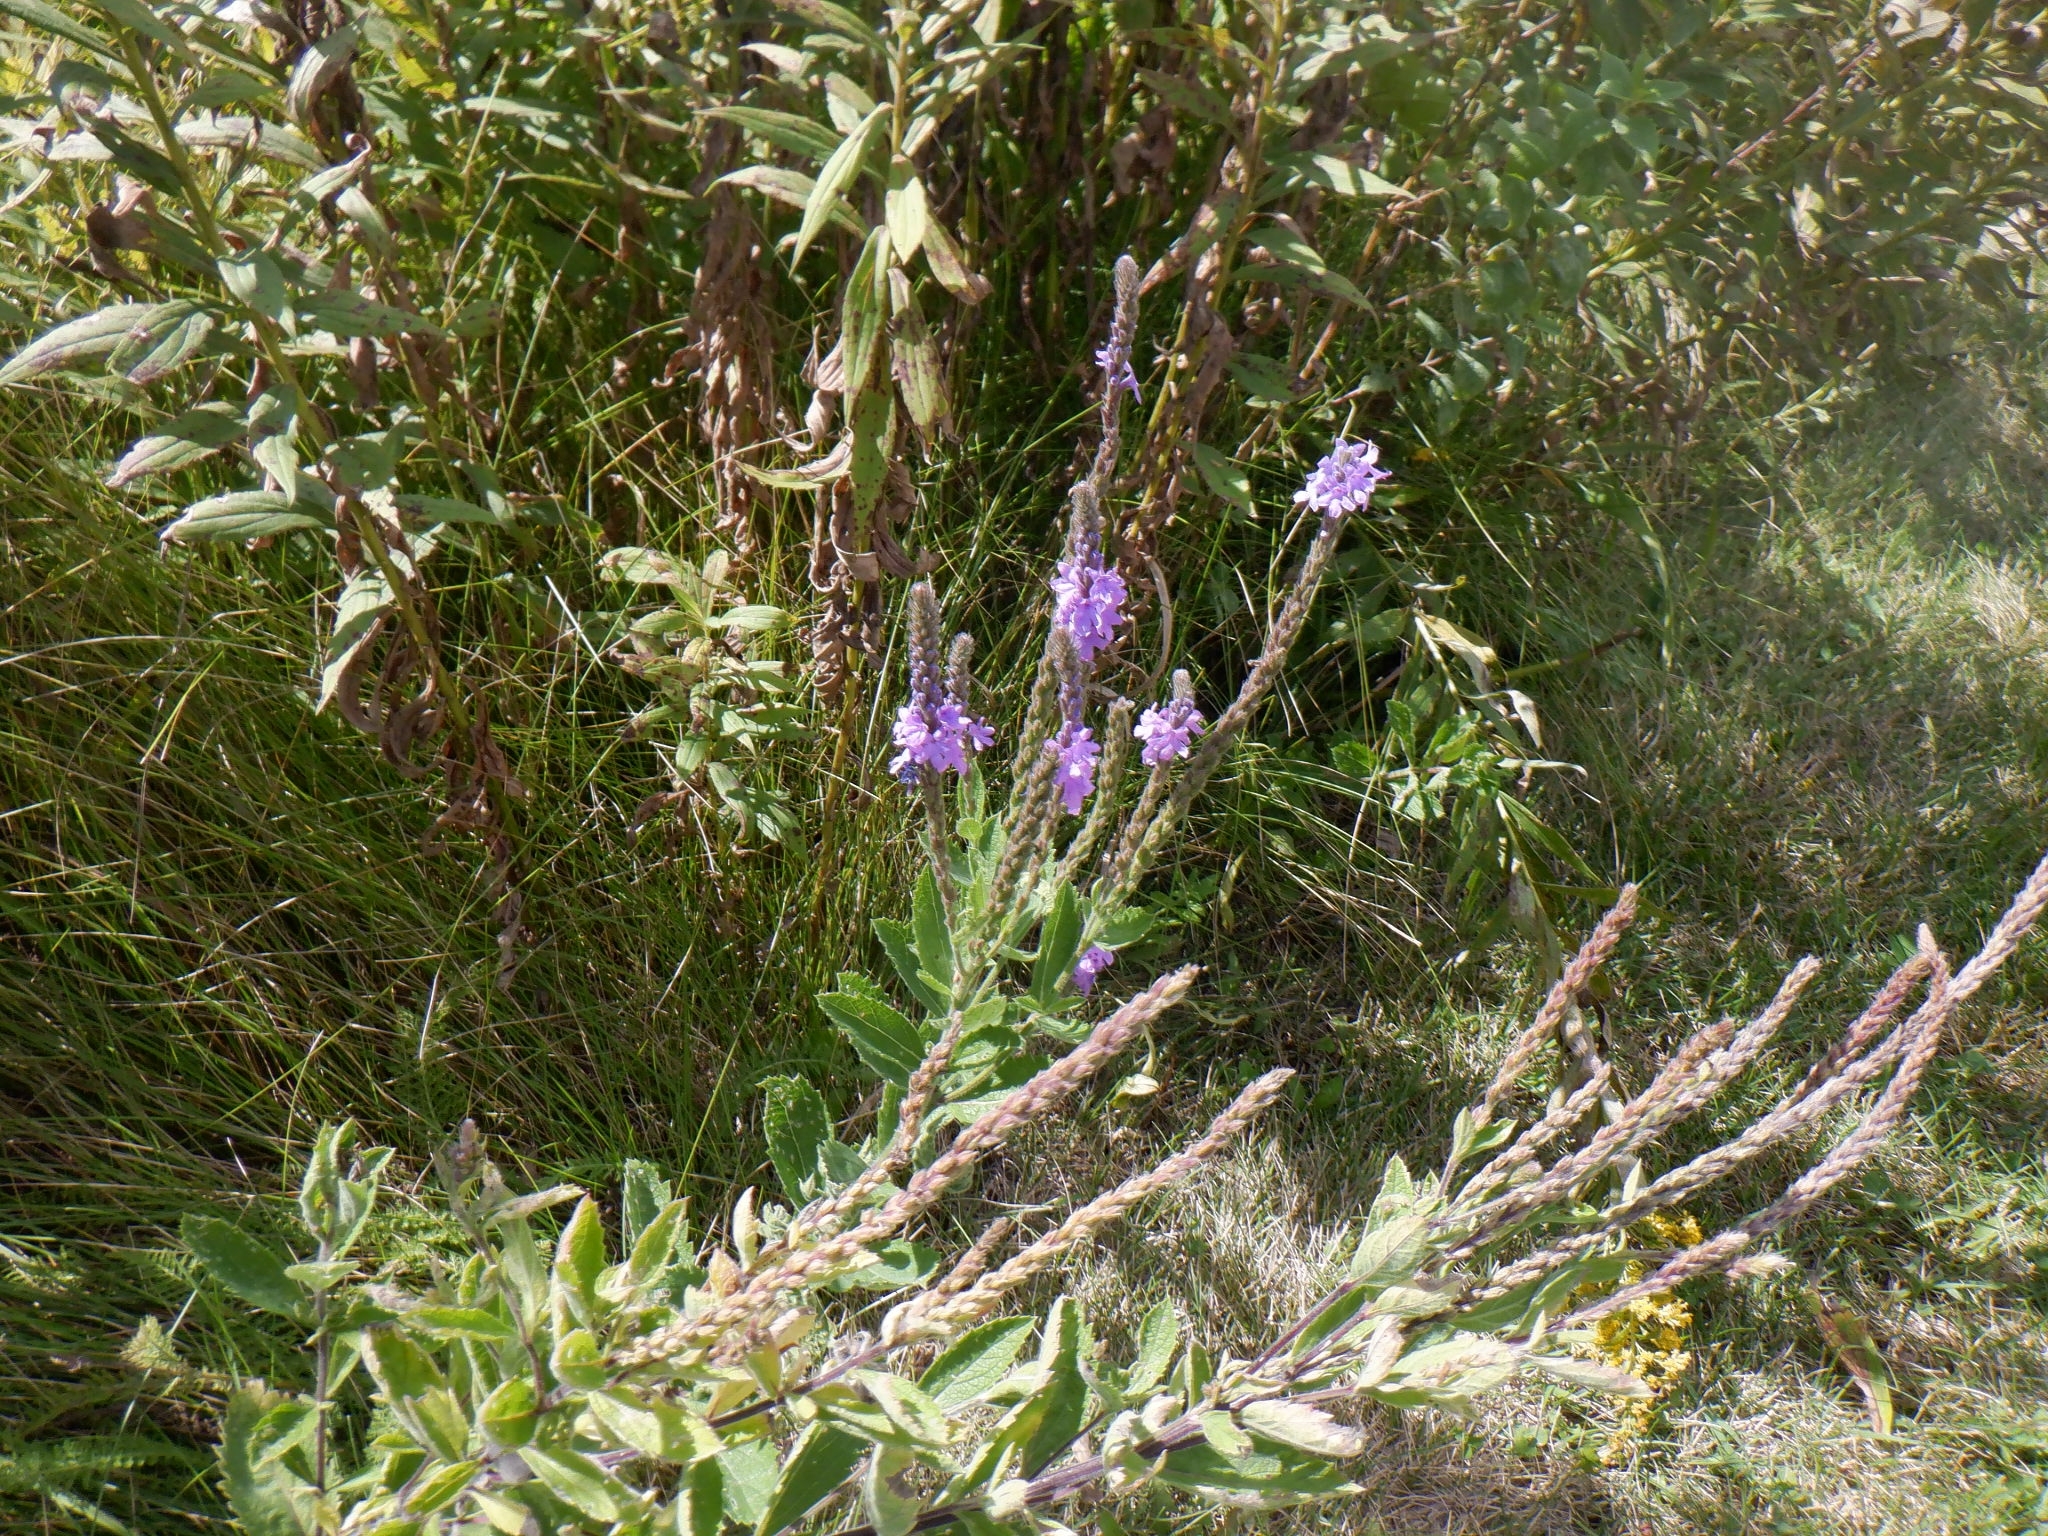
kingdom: Plantae
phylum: Tracheophyta
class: Magnoliopsida
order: Lamiales
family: Verbenaceae
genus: Verbena
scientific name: Verbena stricta
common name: Hoary vervain
